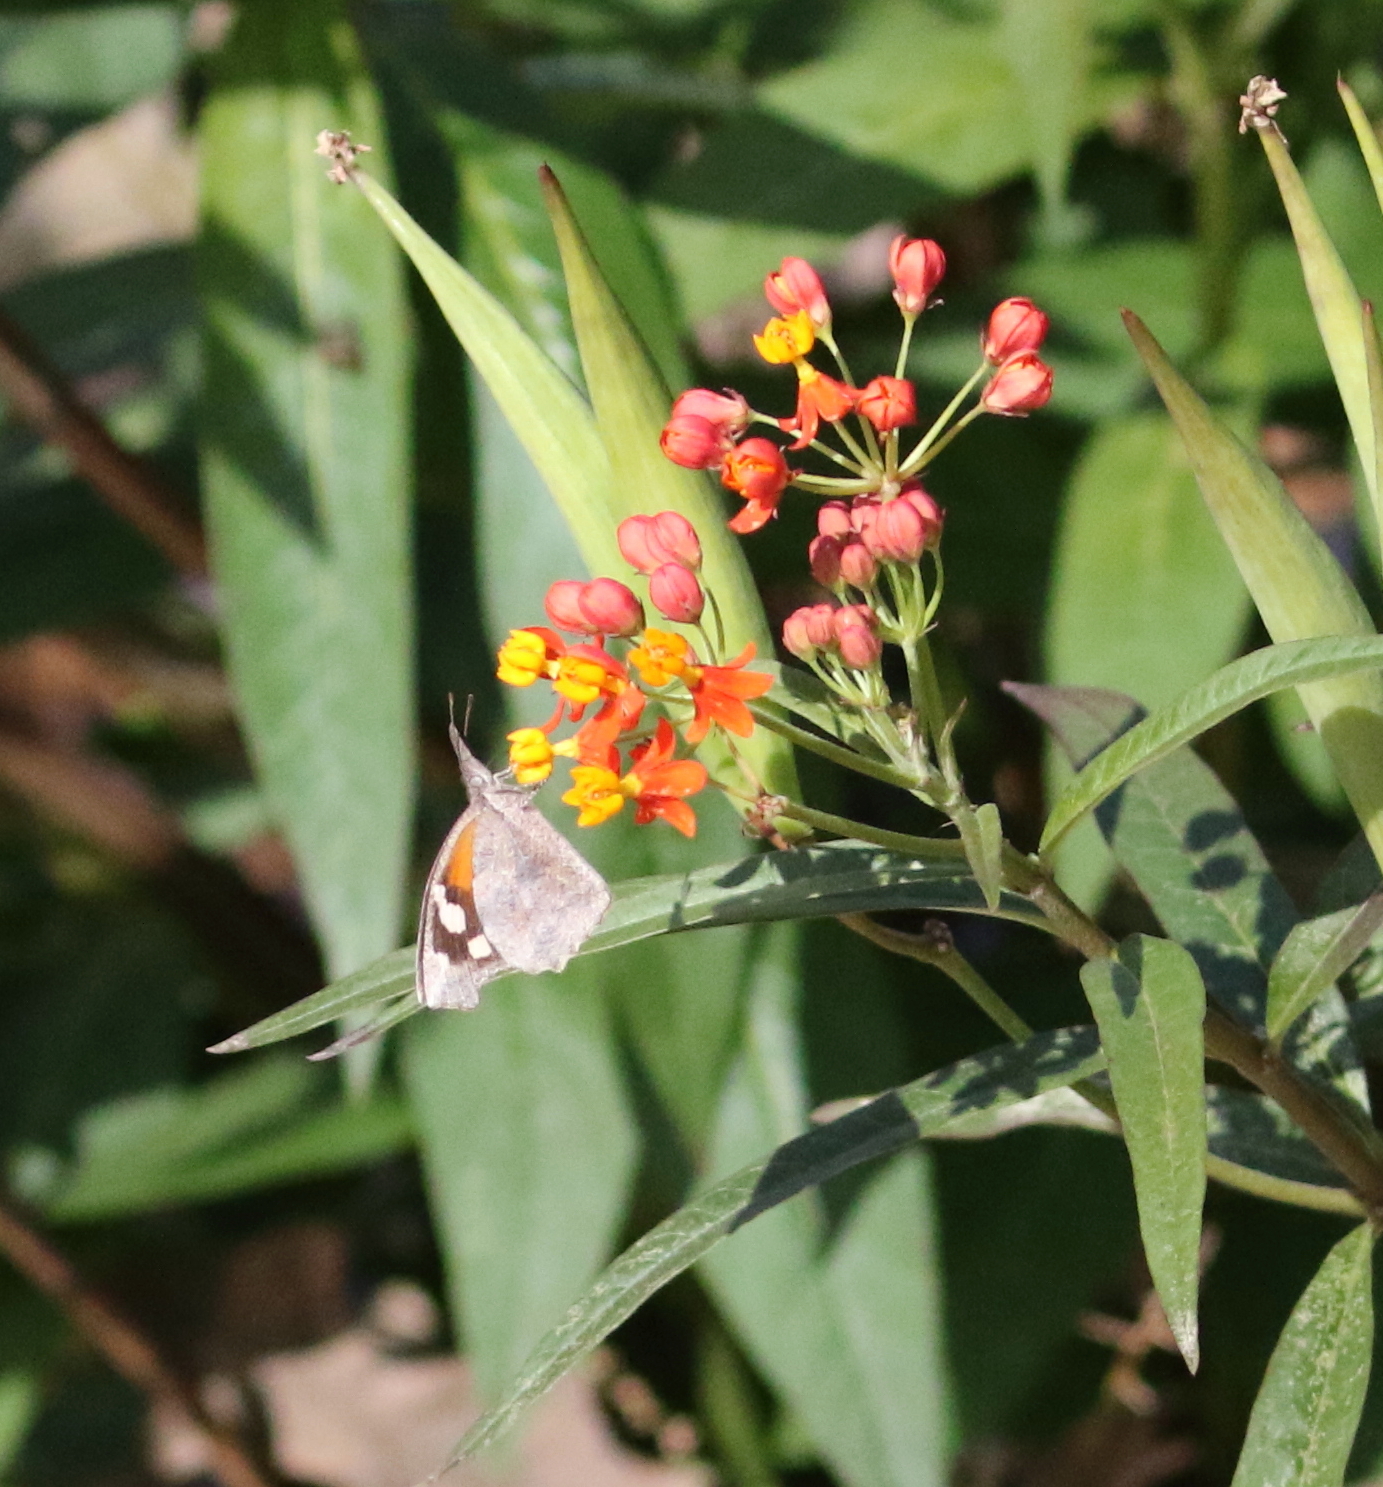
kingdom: Animalia
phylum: Arthropoda
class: Insecta
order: Lepidoptera
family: Nymphalidae
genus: Libytheana
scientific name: Libytheana carinenta
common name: American snout
